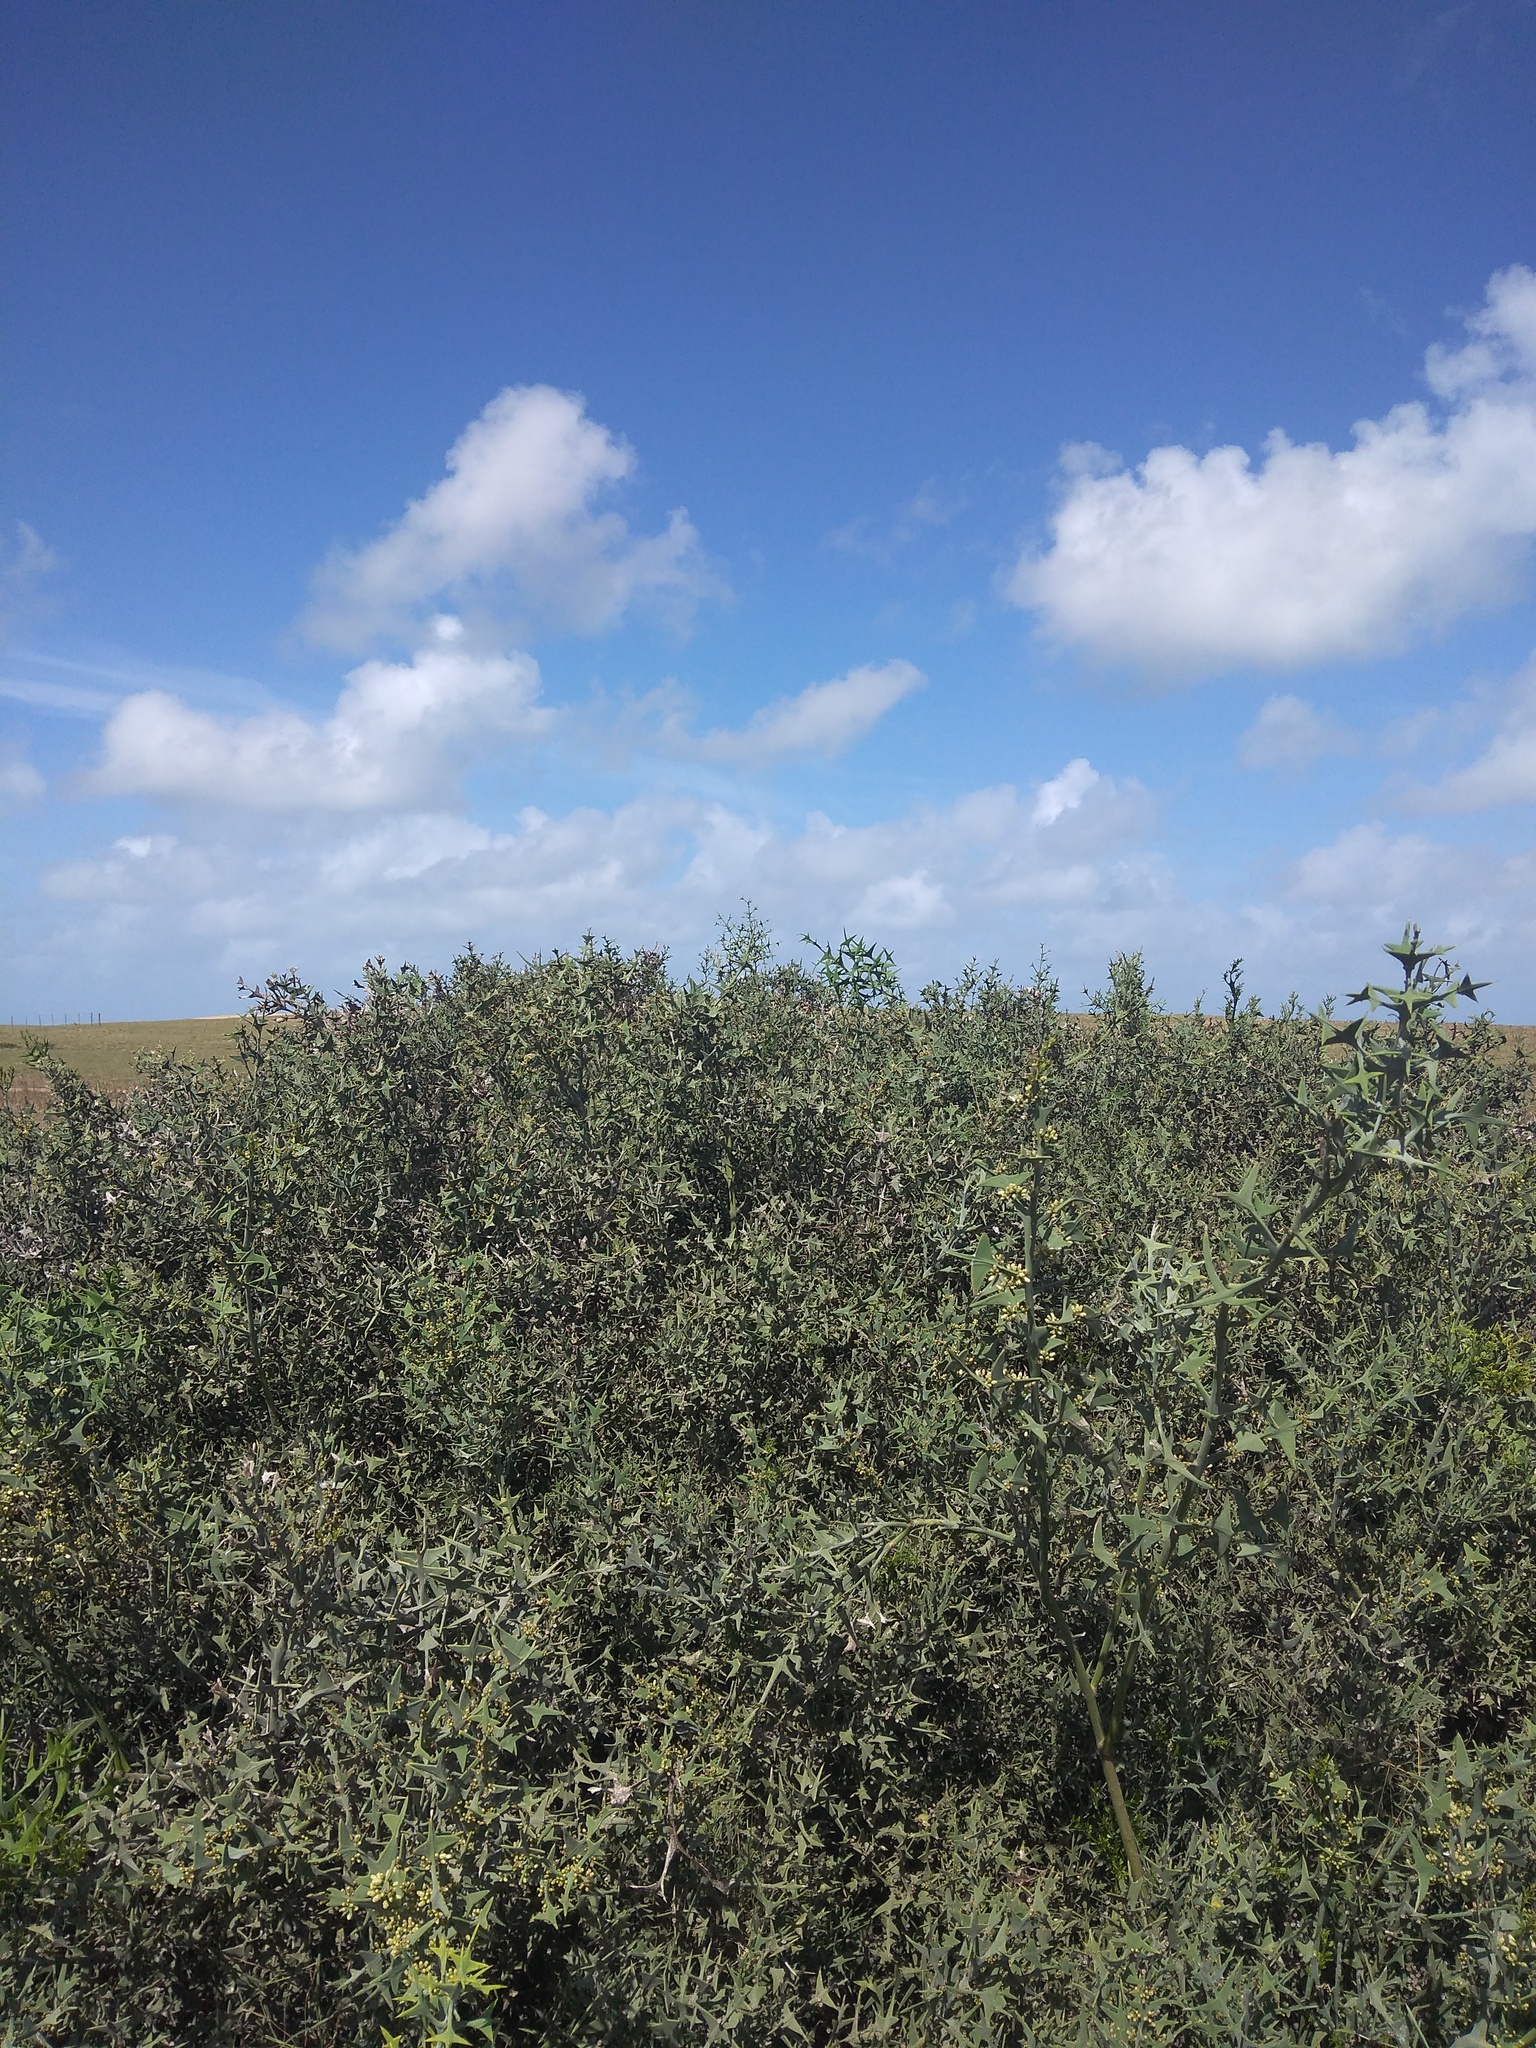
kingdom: Plantae
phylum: Tracheophyta
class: Magnoliopsida
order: Rosales
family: Rhamnaceae
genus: Colletia
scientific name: Colletia paradoxa
